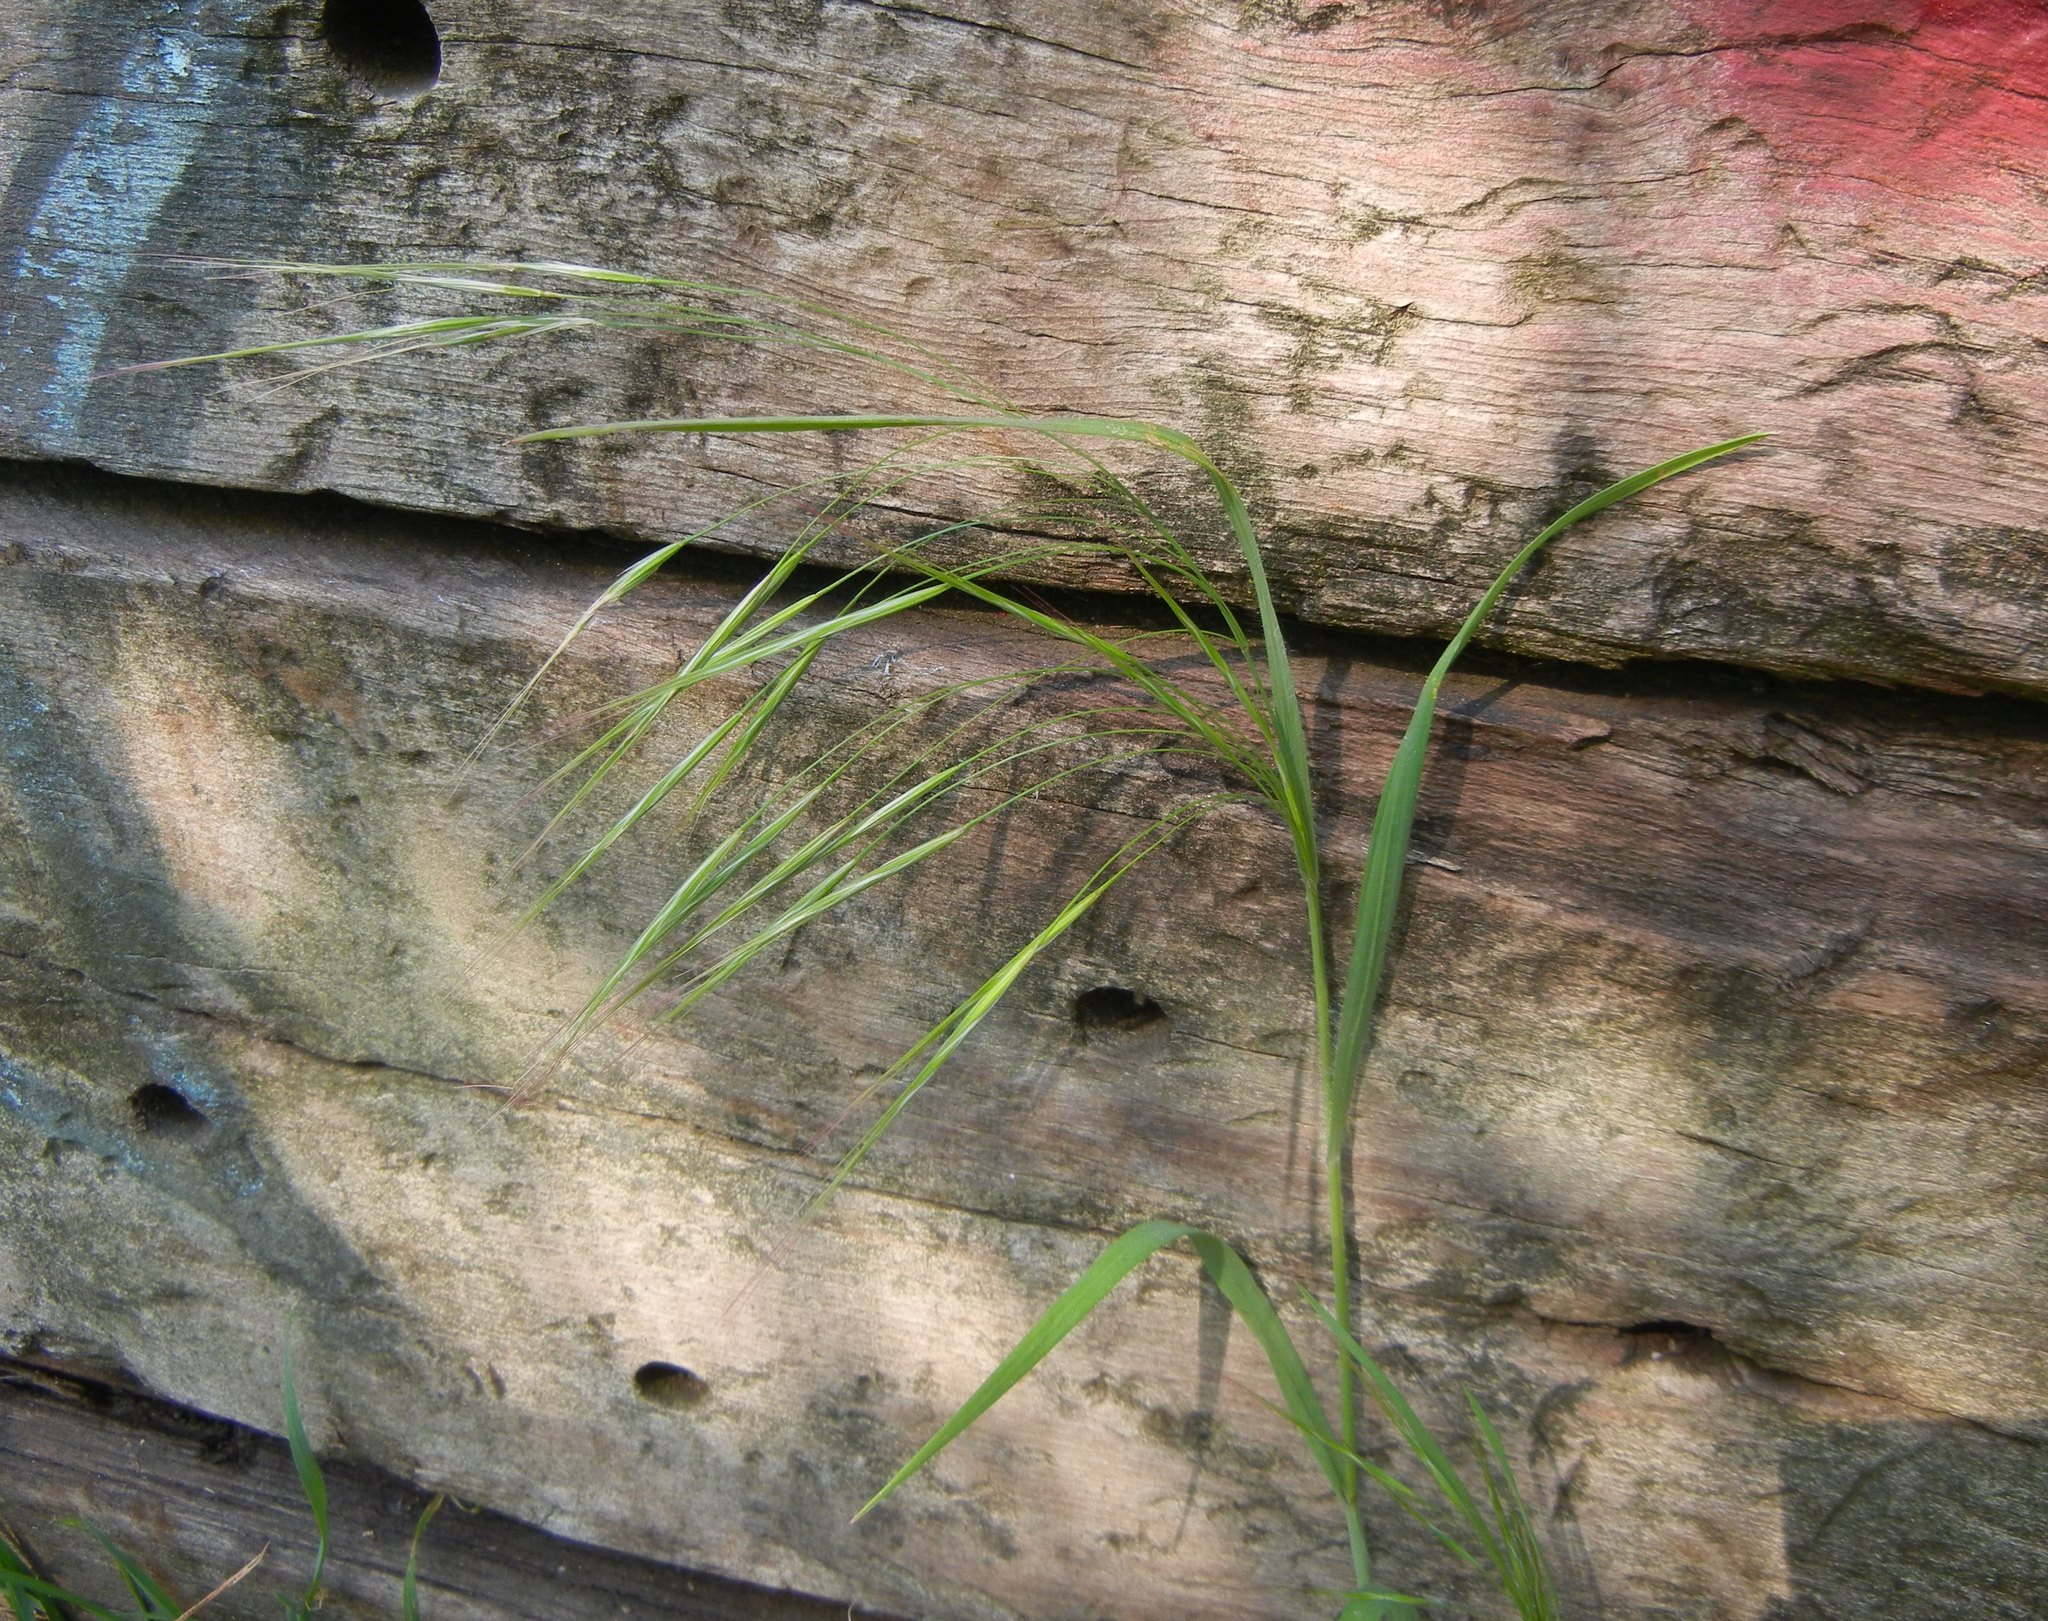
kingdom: Plantae
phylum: Tracheophyta
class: Liliopsida
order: Poales
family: Poaceae
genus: Bromus
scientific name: Bromus sterilis
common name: Poverty brome
